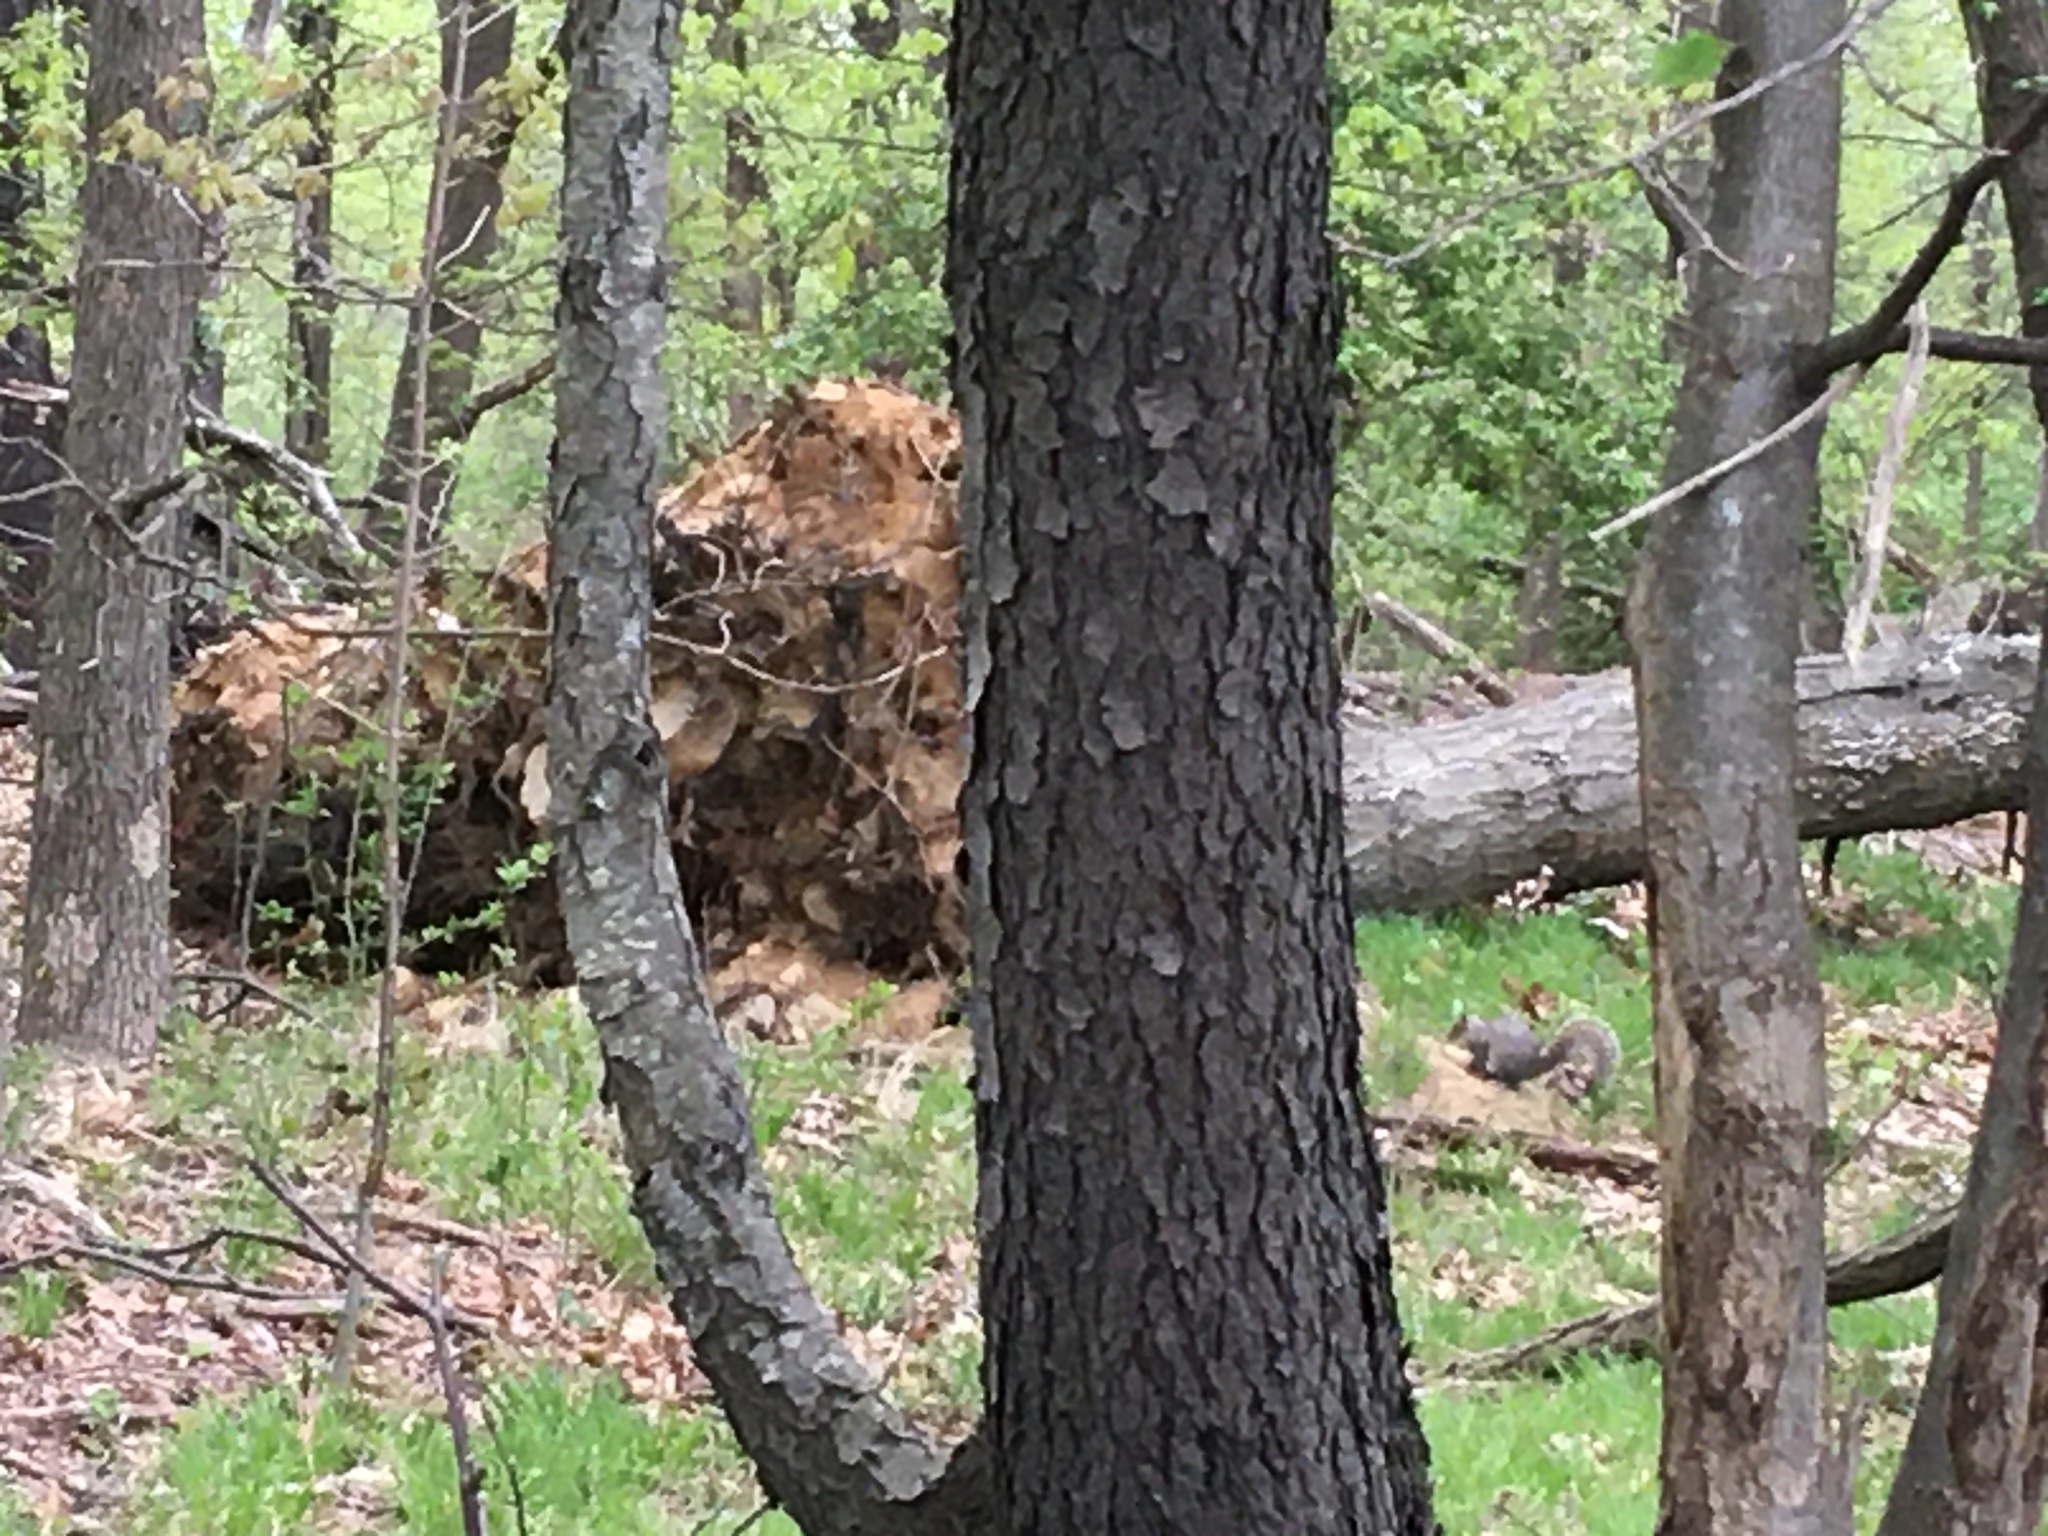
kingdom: Plantae
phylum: Tracheophyta
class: Magnoliopsida
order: Rosales
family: Rosaceae
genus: Prunus
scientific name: Prunus serotina
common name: Black cherry
